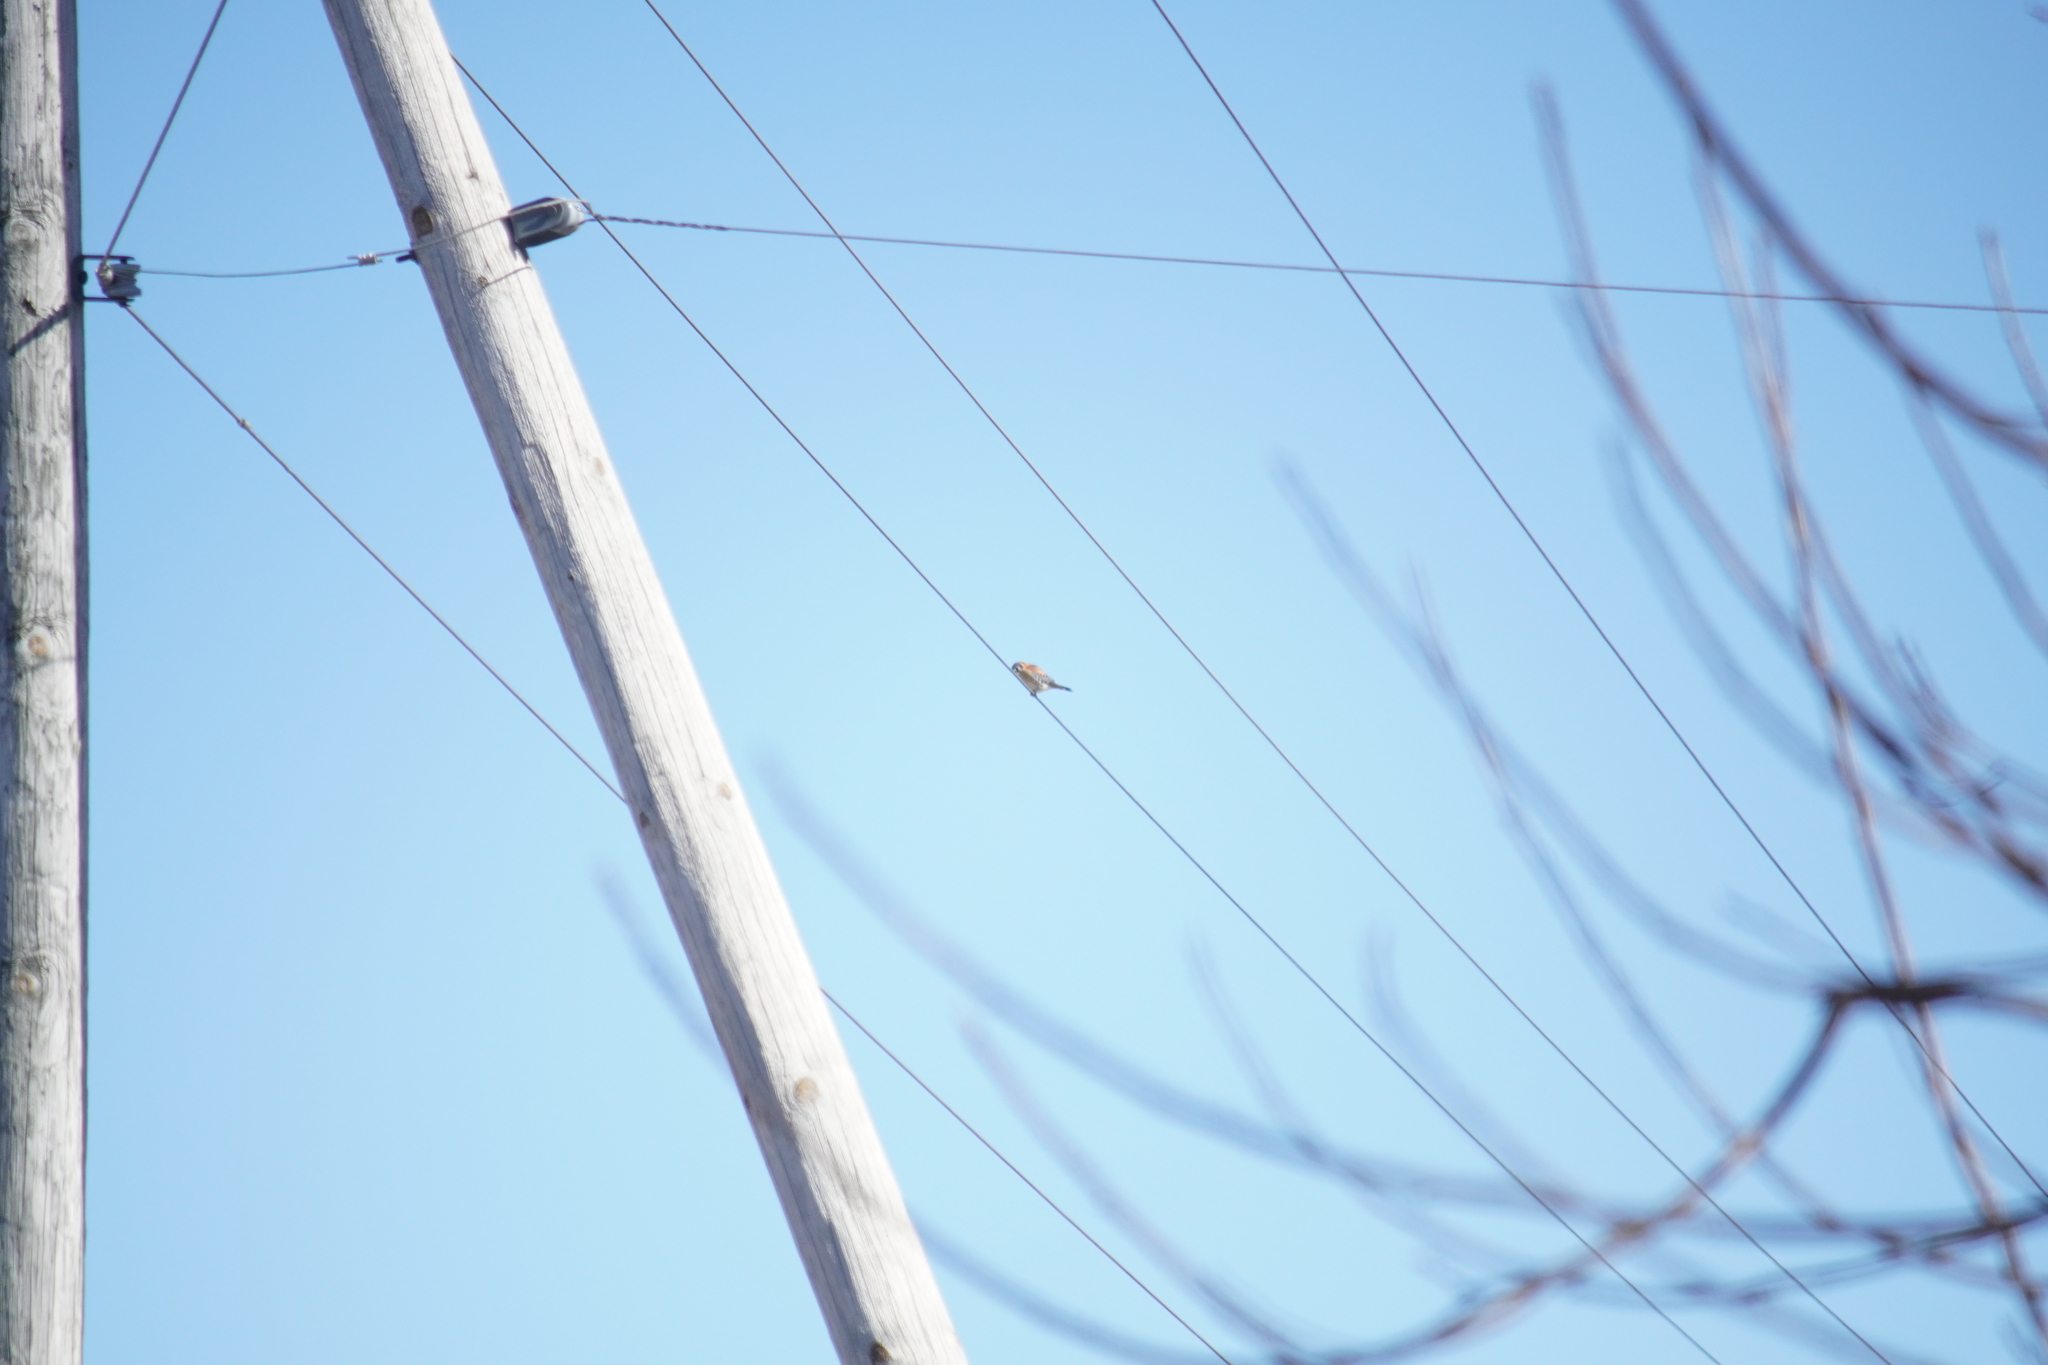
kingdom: Animalia
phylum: Chordata
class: Aves
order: Falconiformes
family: Falconidae
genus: Falco
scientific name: Falco sparverius
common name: American kestrel
